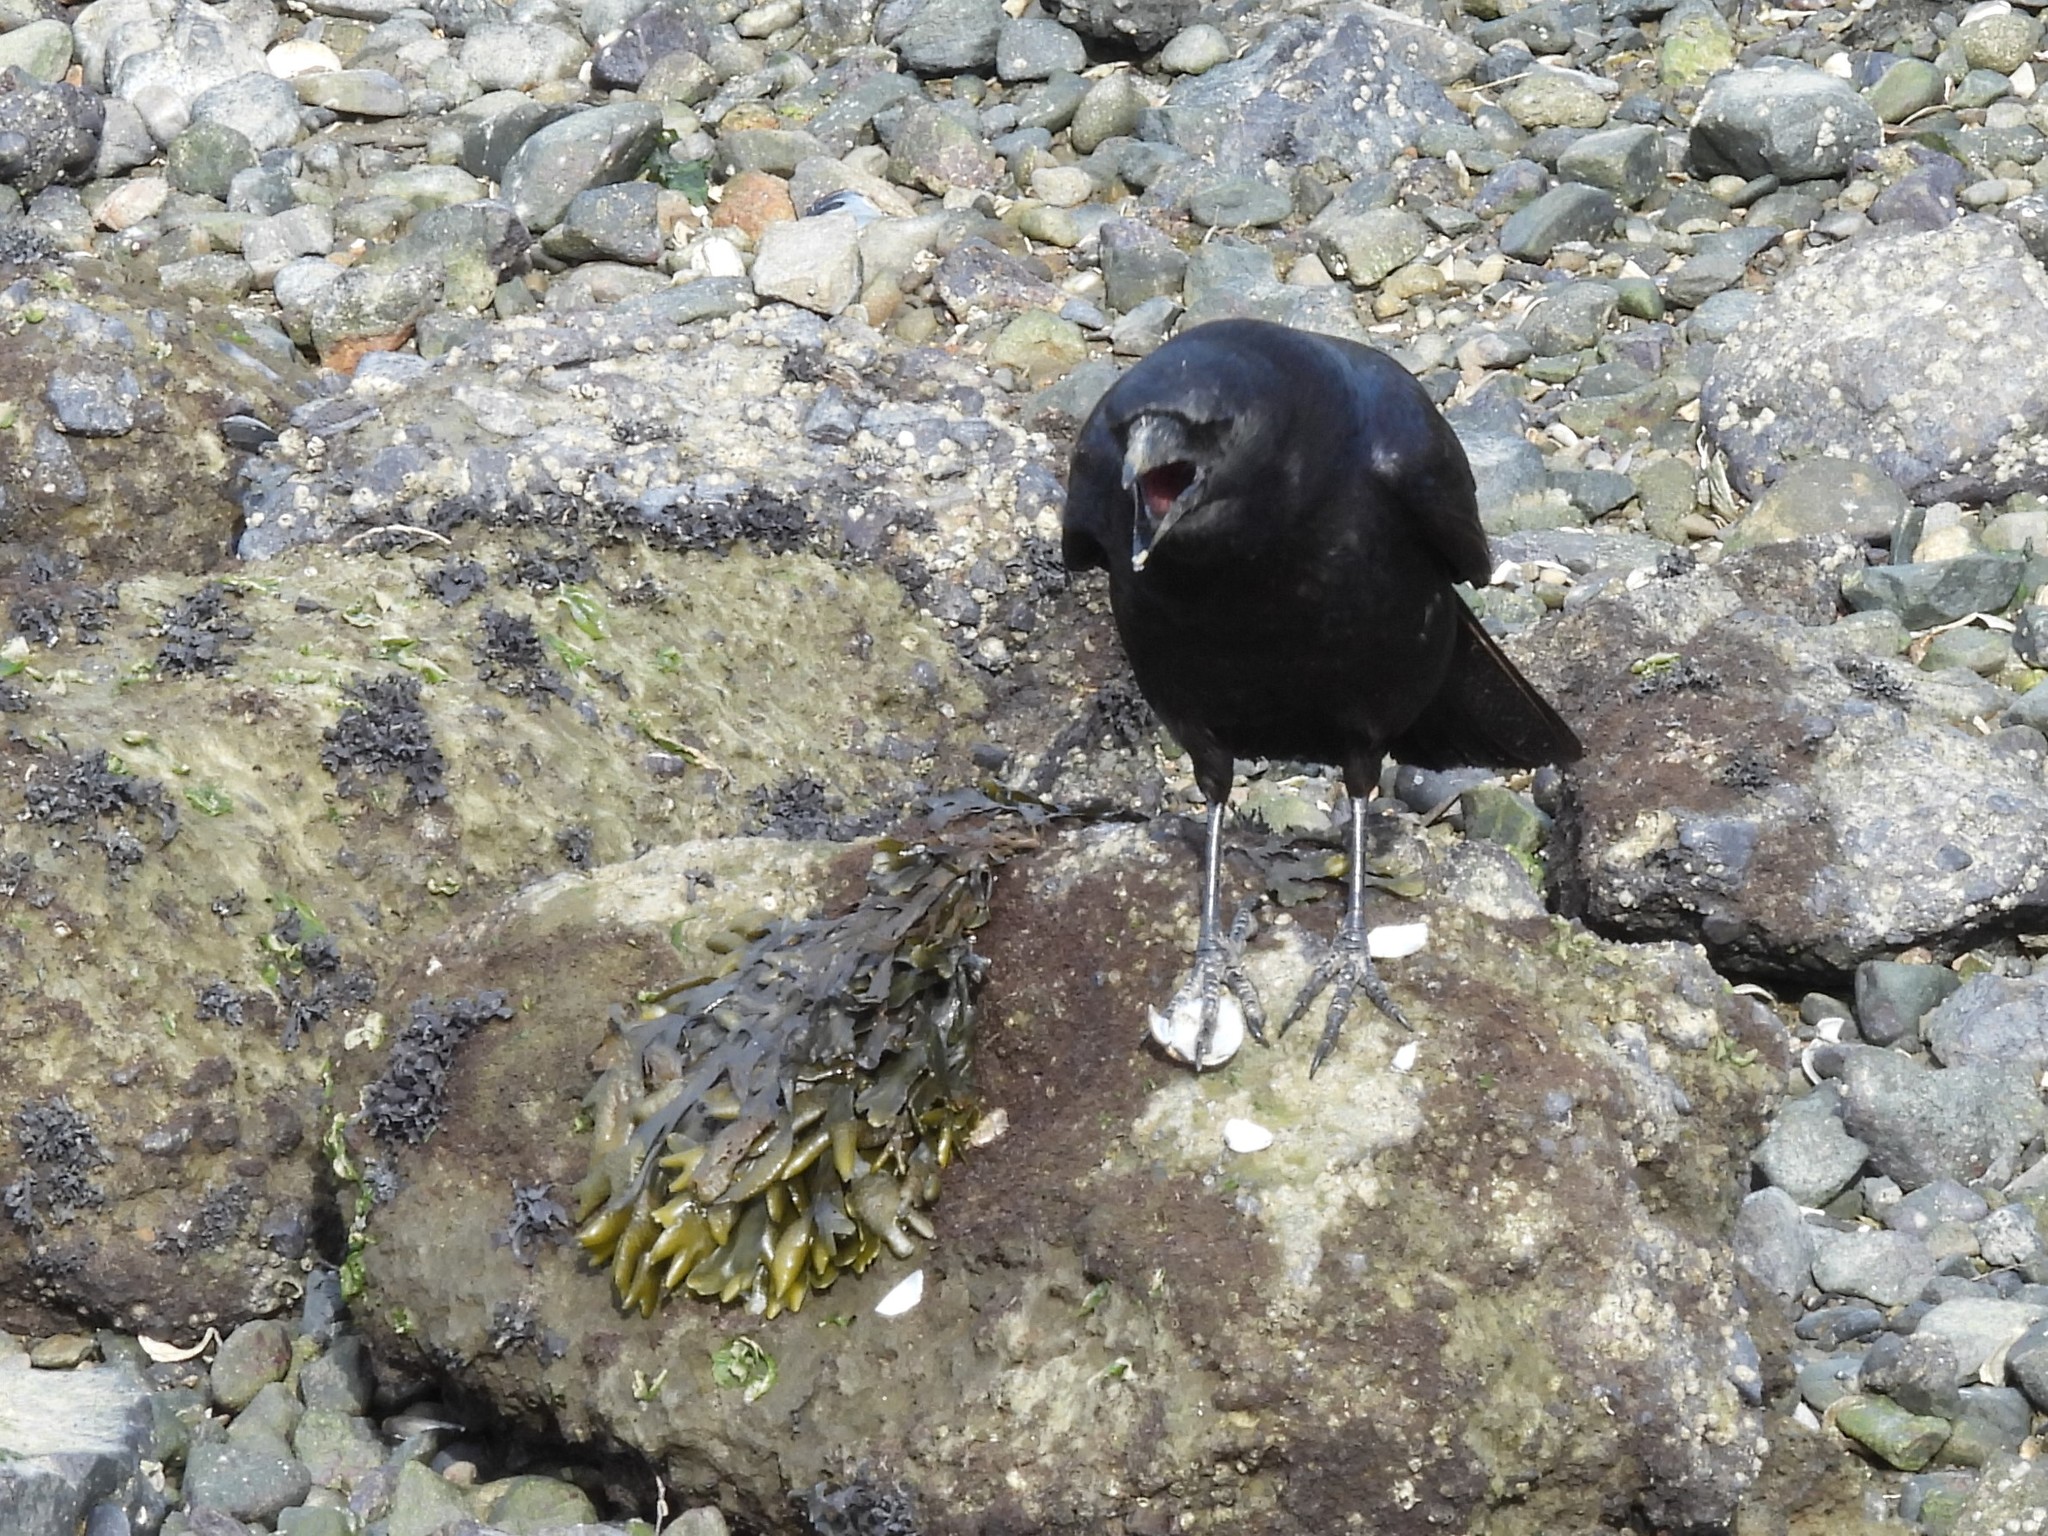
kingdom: Animalia
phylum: Chordata
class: Aves
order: Passeriformes
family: Corvidae
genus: Corvus
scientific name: Corvus brachyrhynchos
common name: American crow
